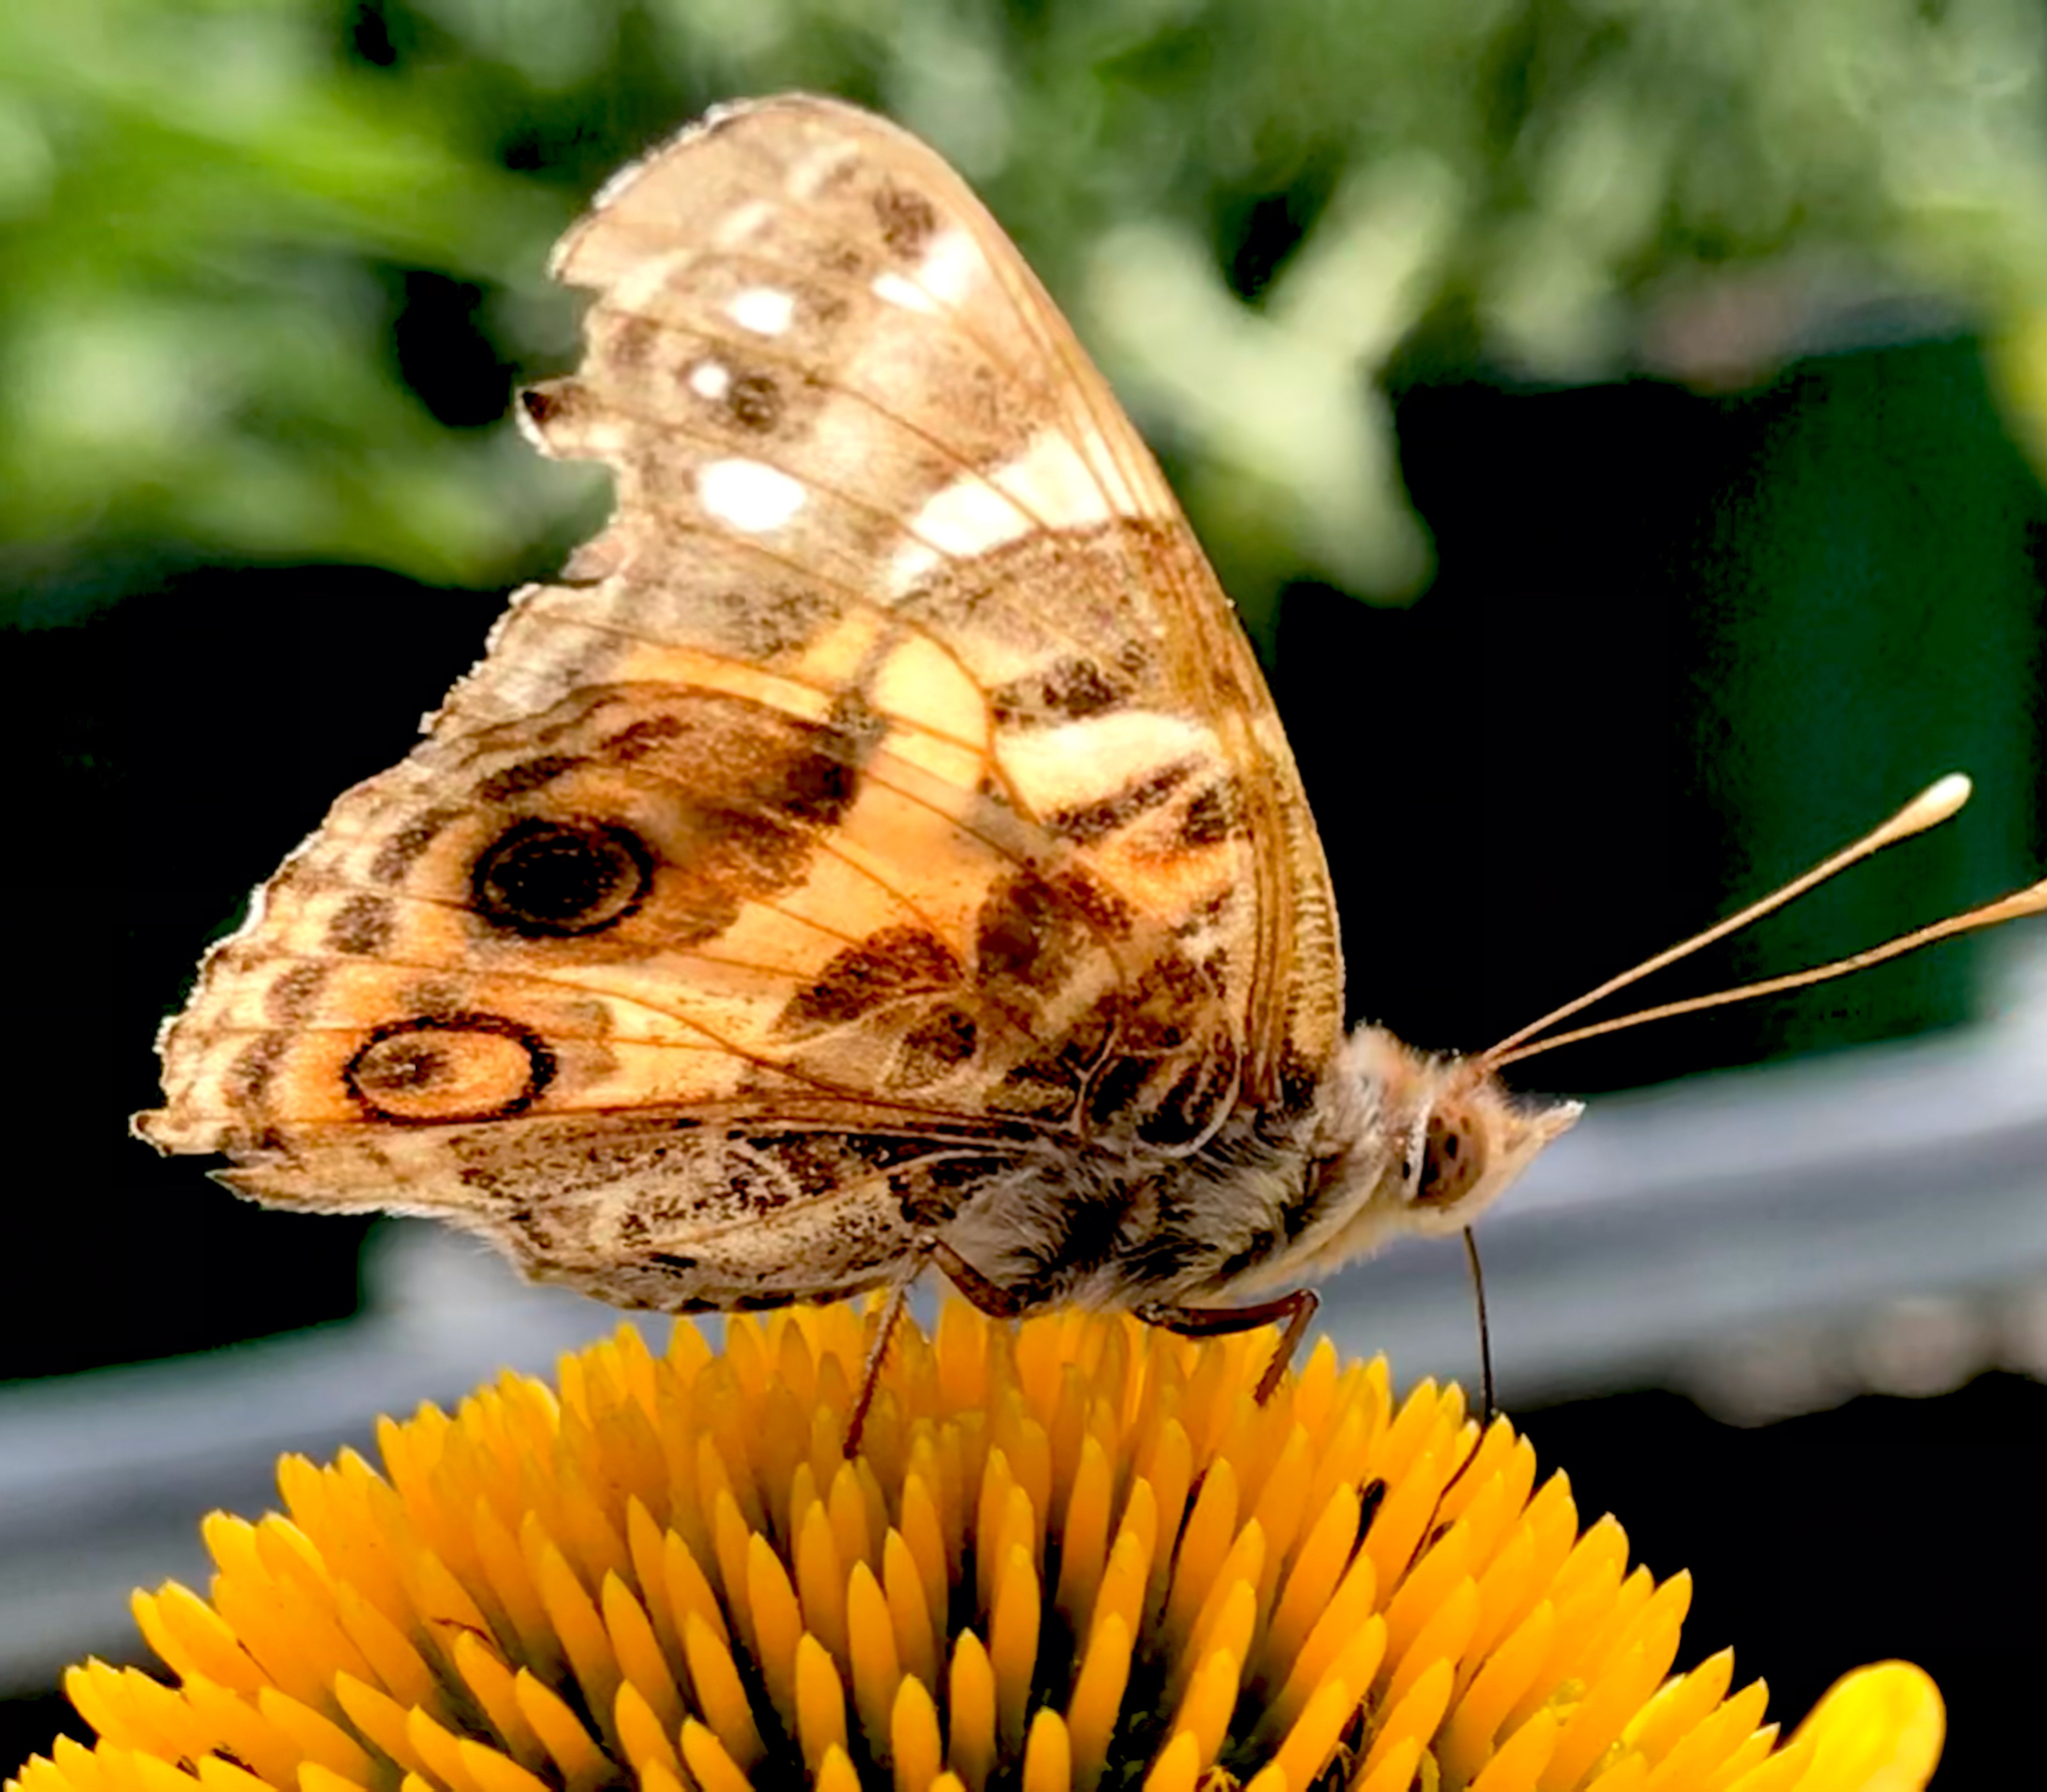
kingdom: Animalia
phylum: Arthropoda
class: Insecta
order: Lepidoptera
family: Nymphalidae
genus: Vanessa
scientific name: Vanessa virginiensis
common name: American lady
